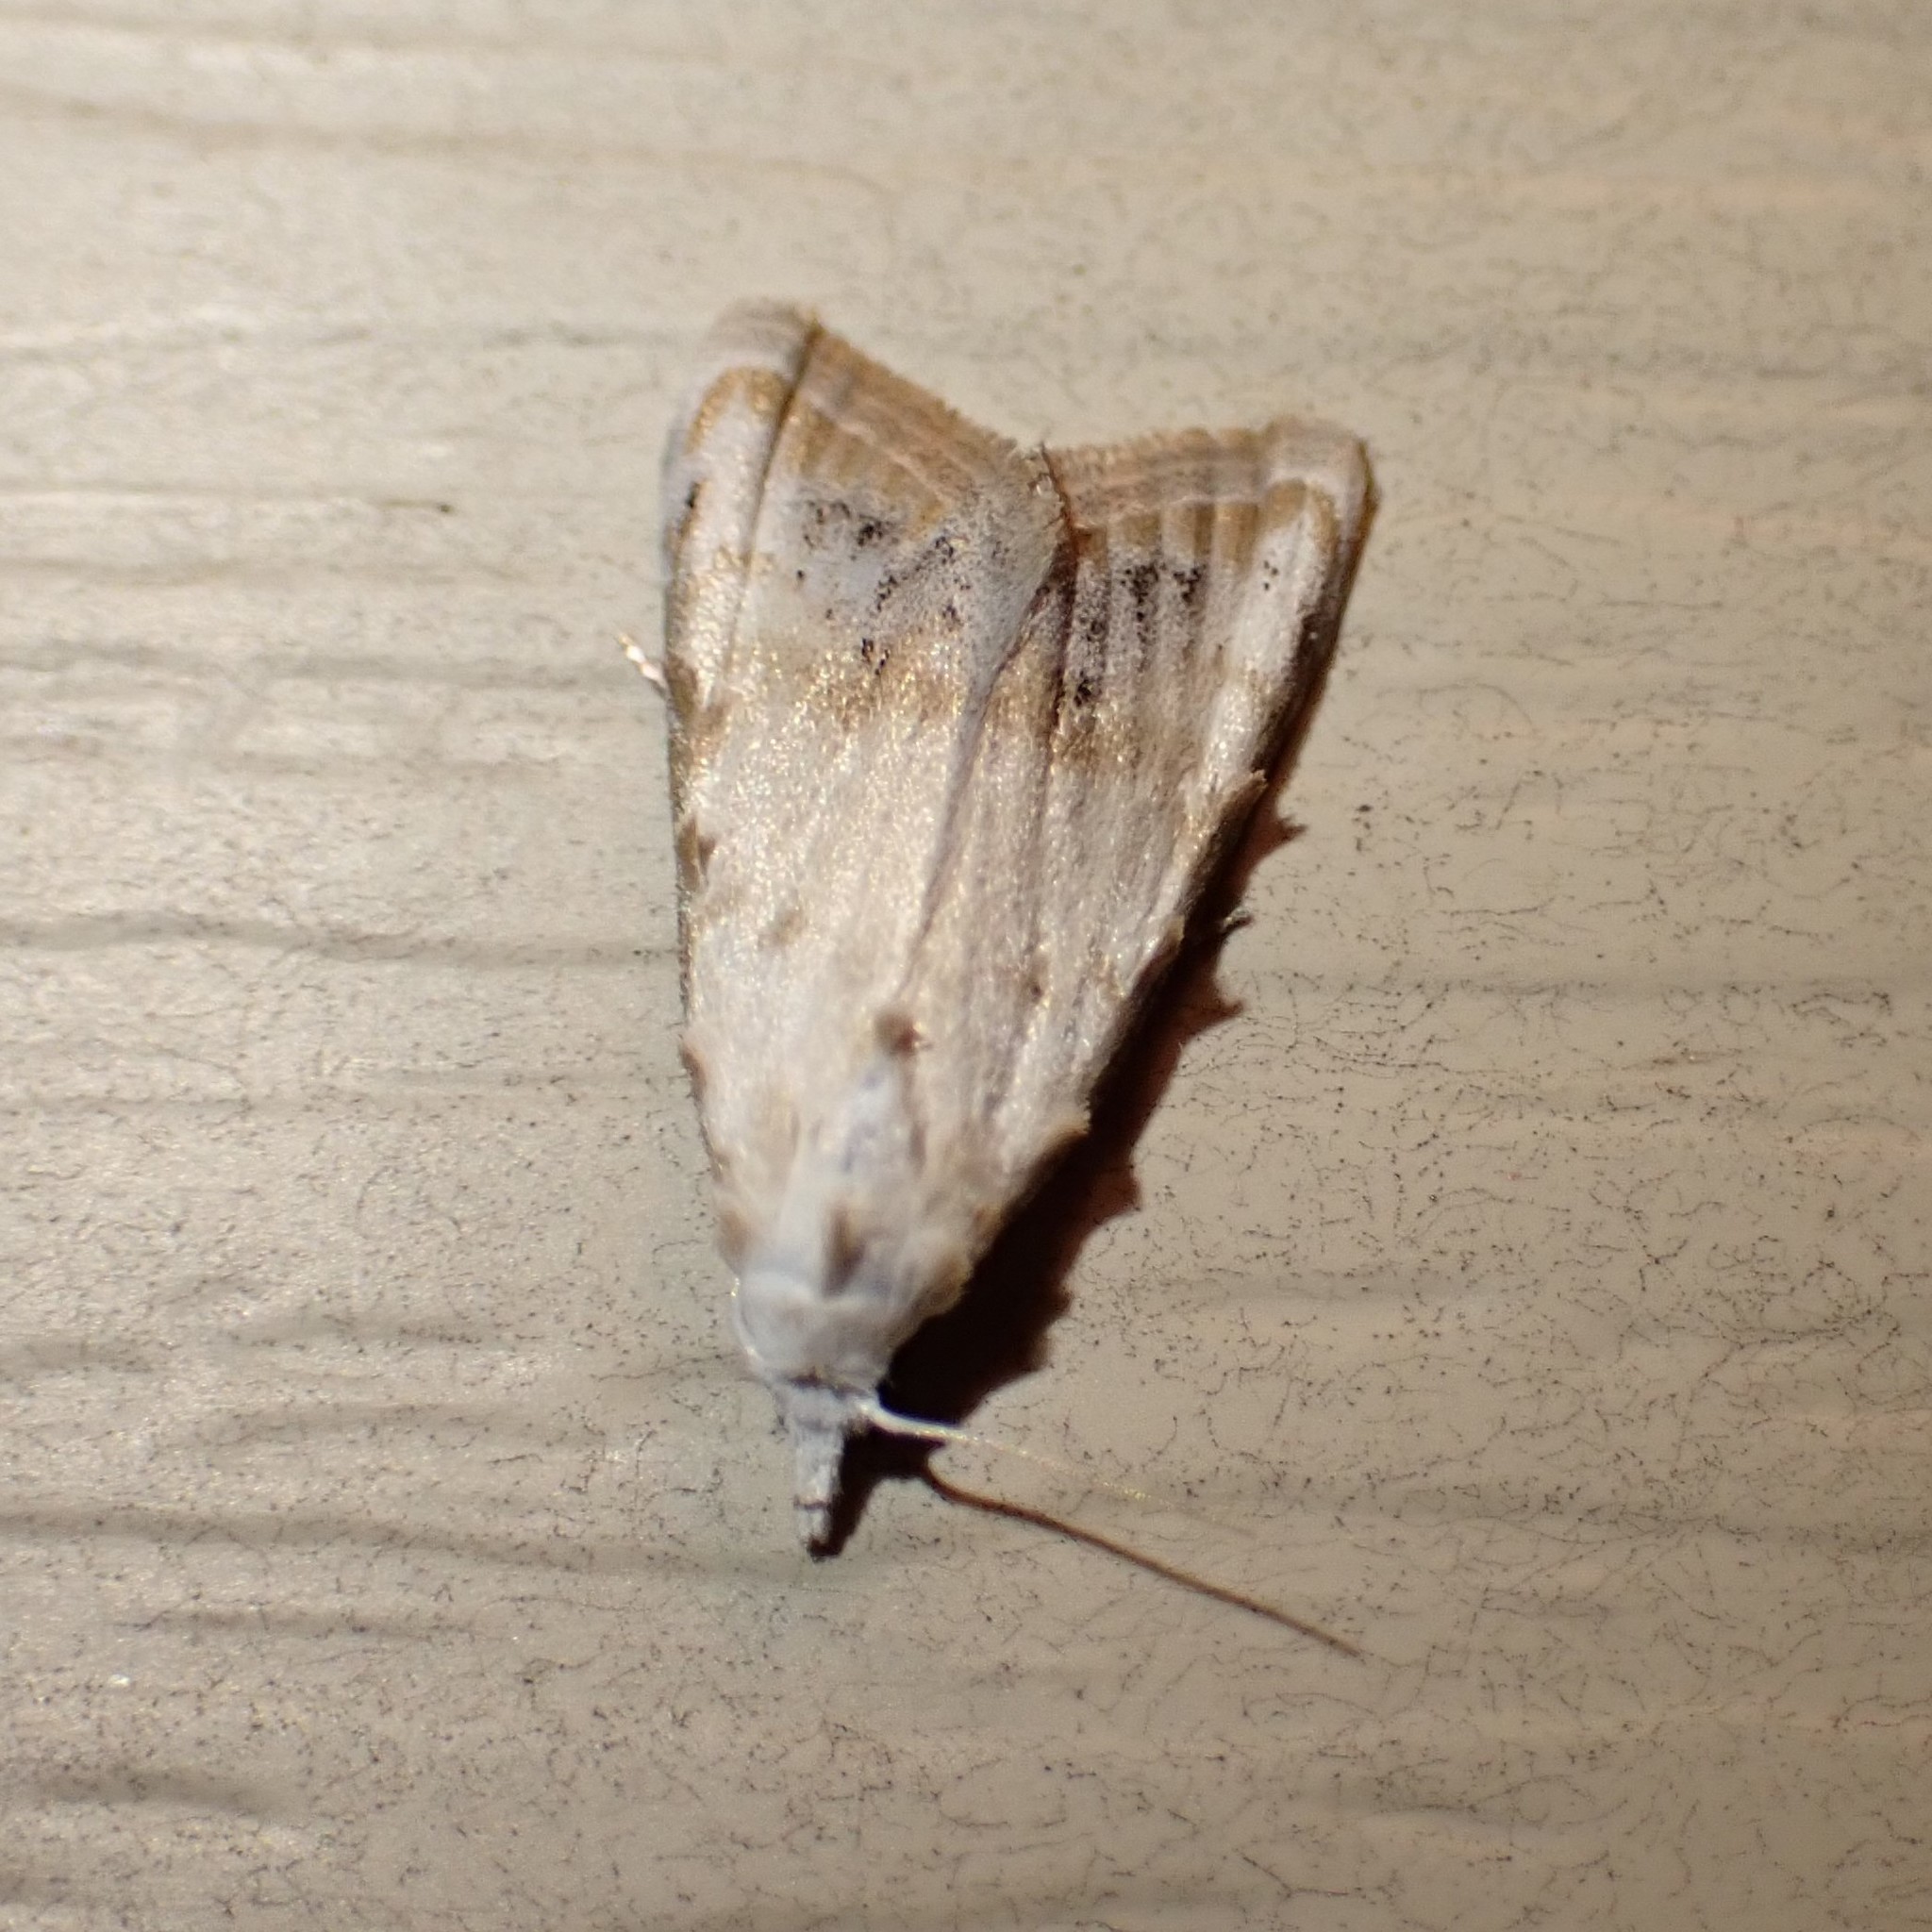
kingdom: Animalia
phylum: Arthropoda
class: Insecta
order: Lepidoptera
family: Nolidae
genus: Nola
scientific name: Nola cereella
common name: Sorghum webworm moth
